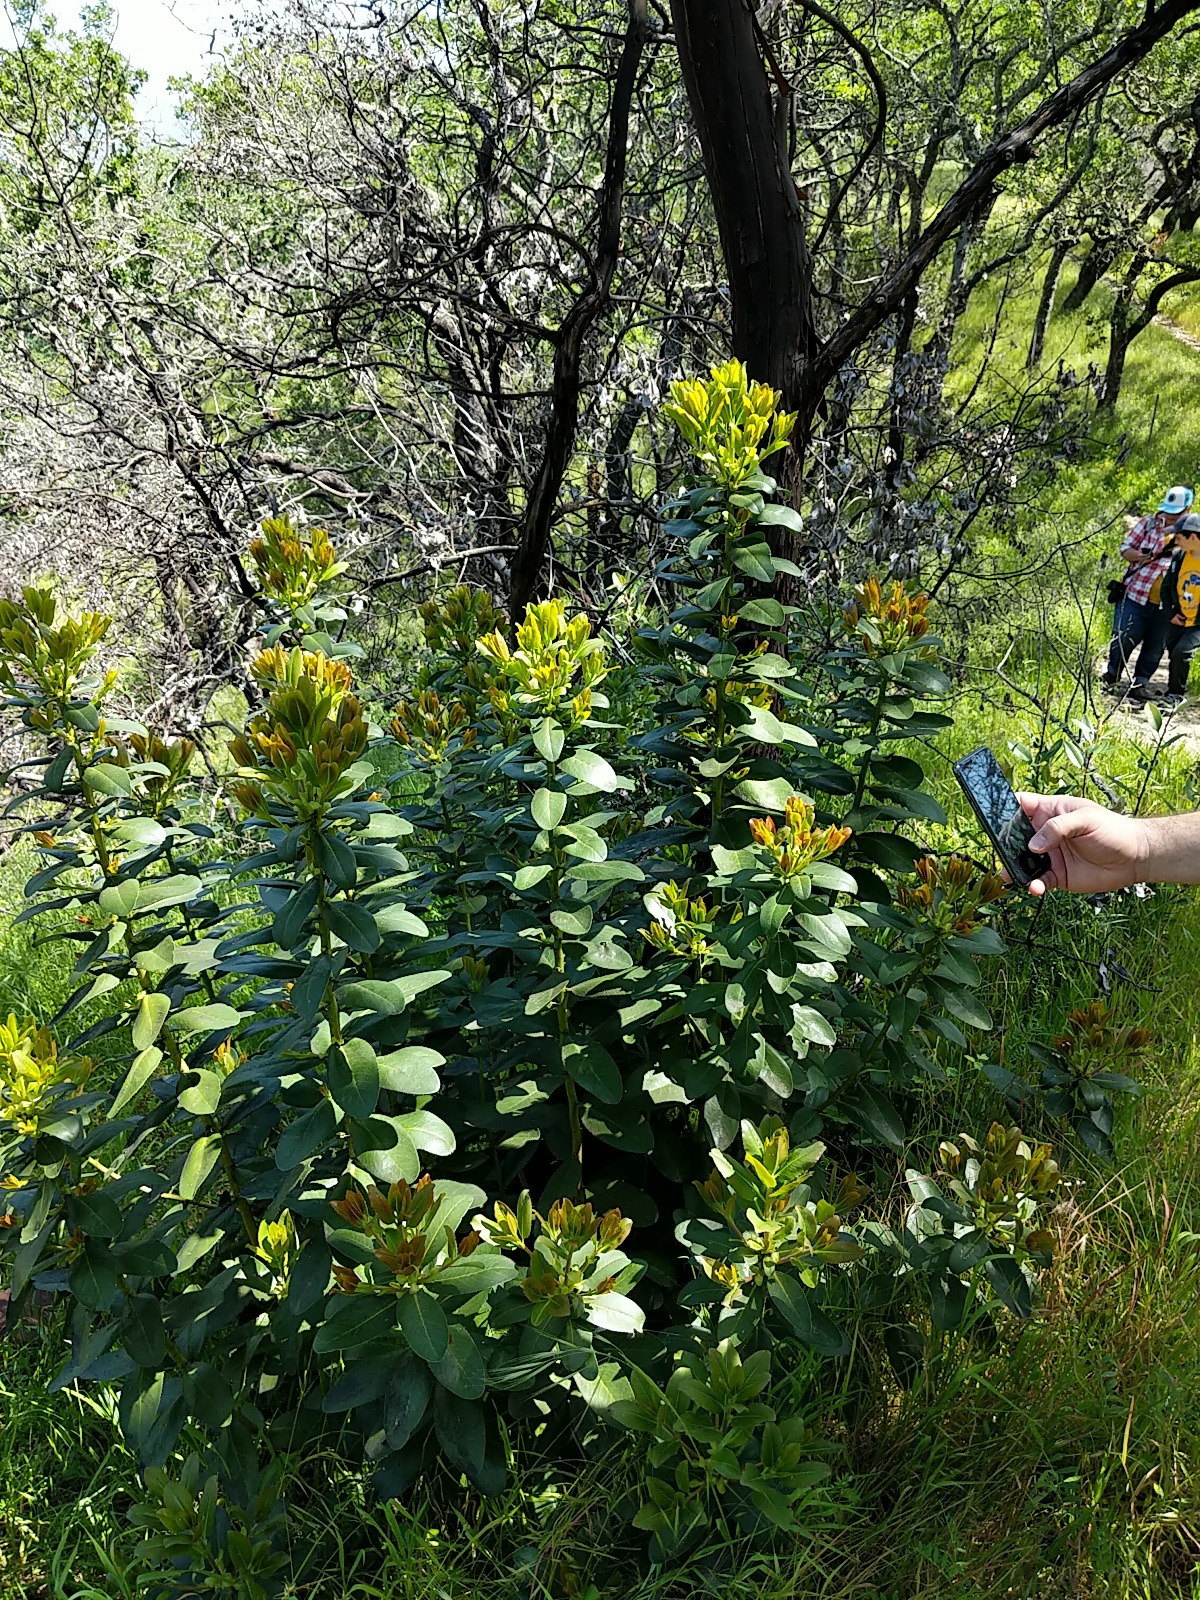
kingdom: Plantae
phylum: Tracheophyta
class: Magnoliopsida
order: Ericales
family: Ericaceae
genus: Arbutus
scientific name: Arbutus menziesii
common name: Pacific madrone
